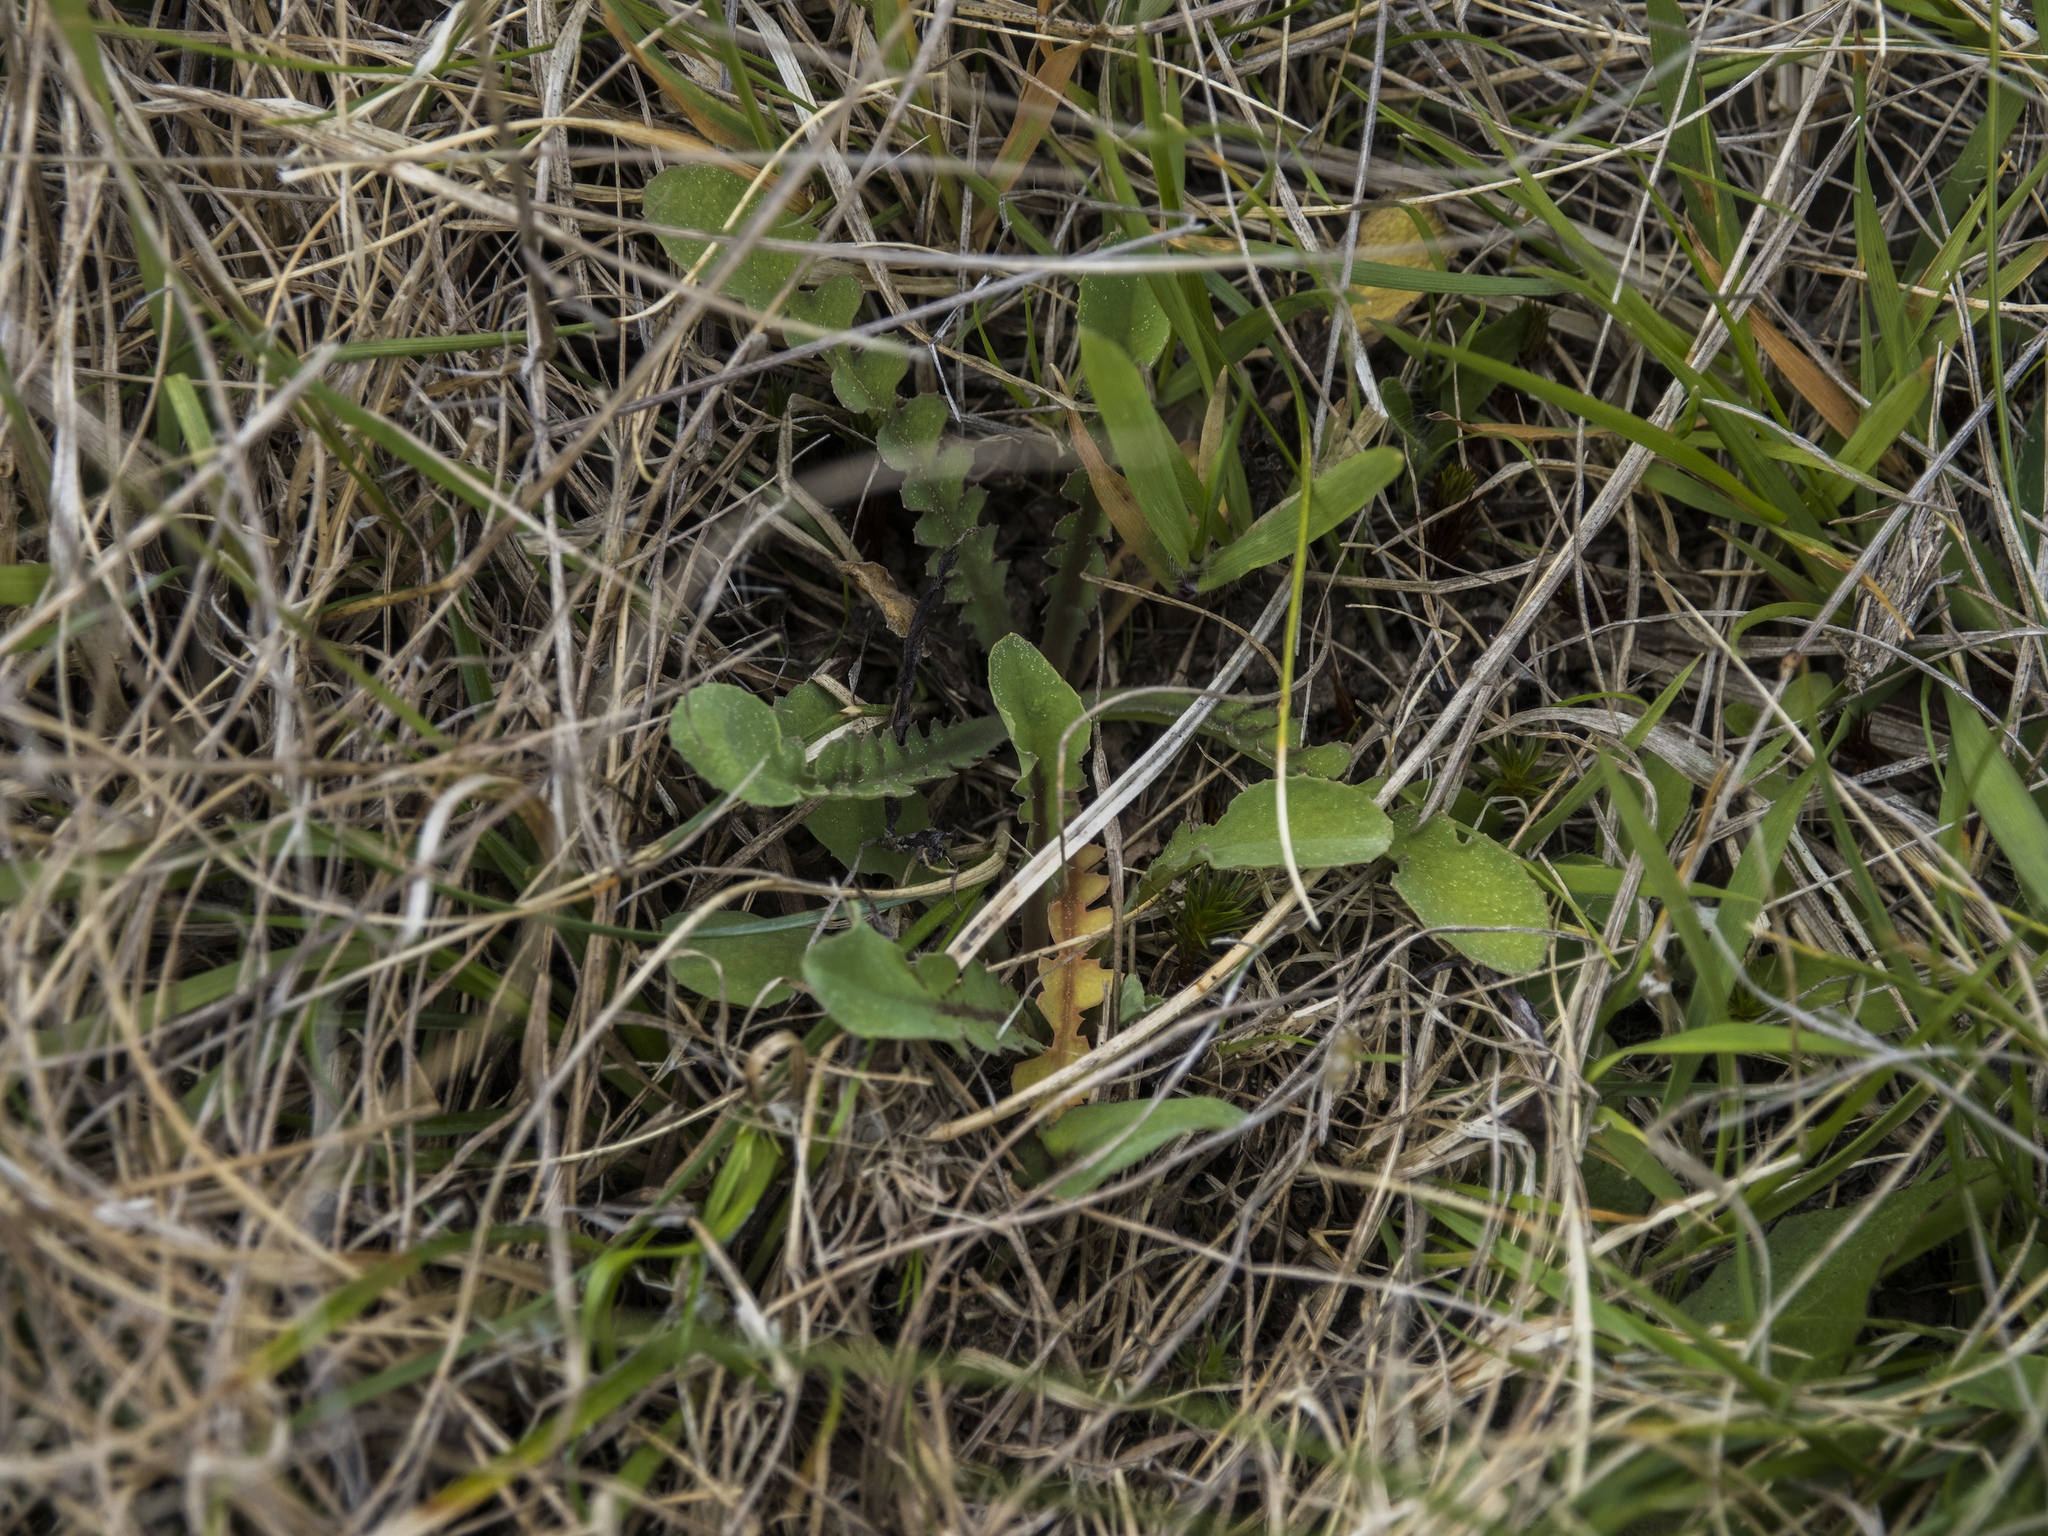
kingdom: Plantae
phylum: Tracheophyta
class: Magnoliopsida
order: Asterales
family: Asteraceae
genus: Sonchus
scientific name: Sonchus novae-zelandiae
